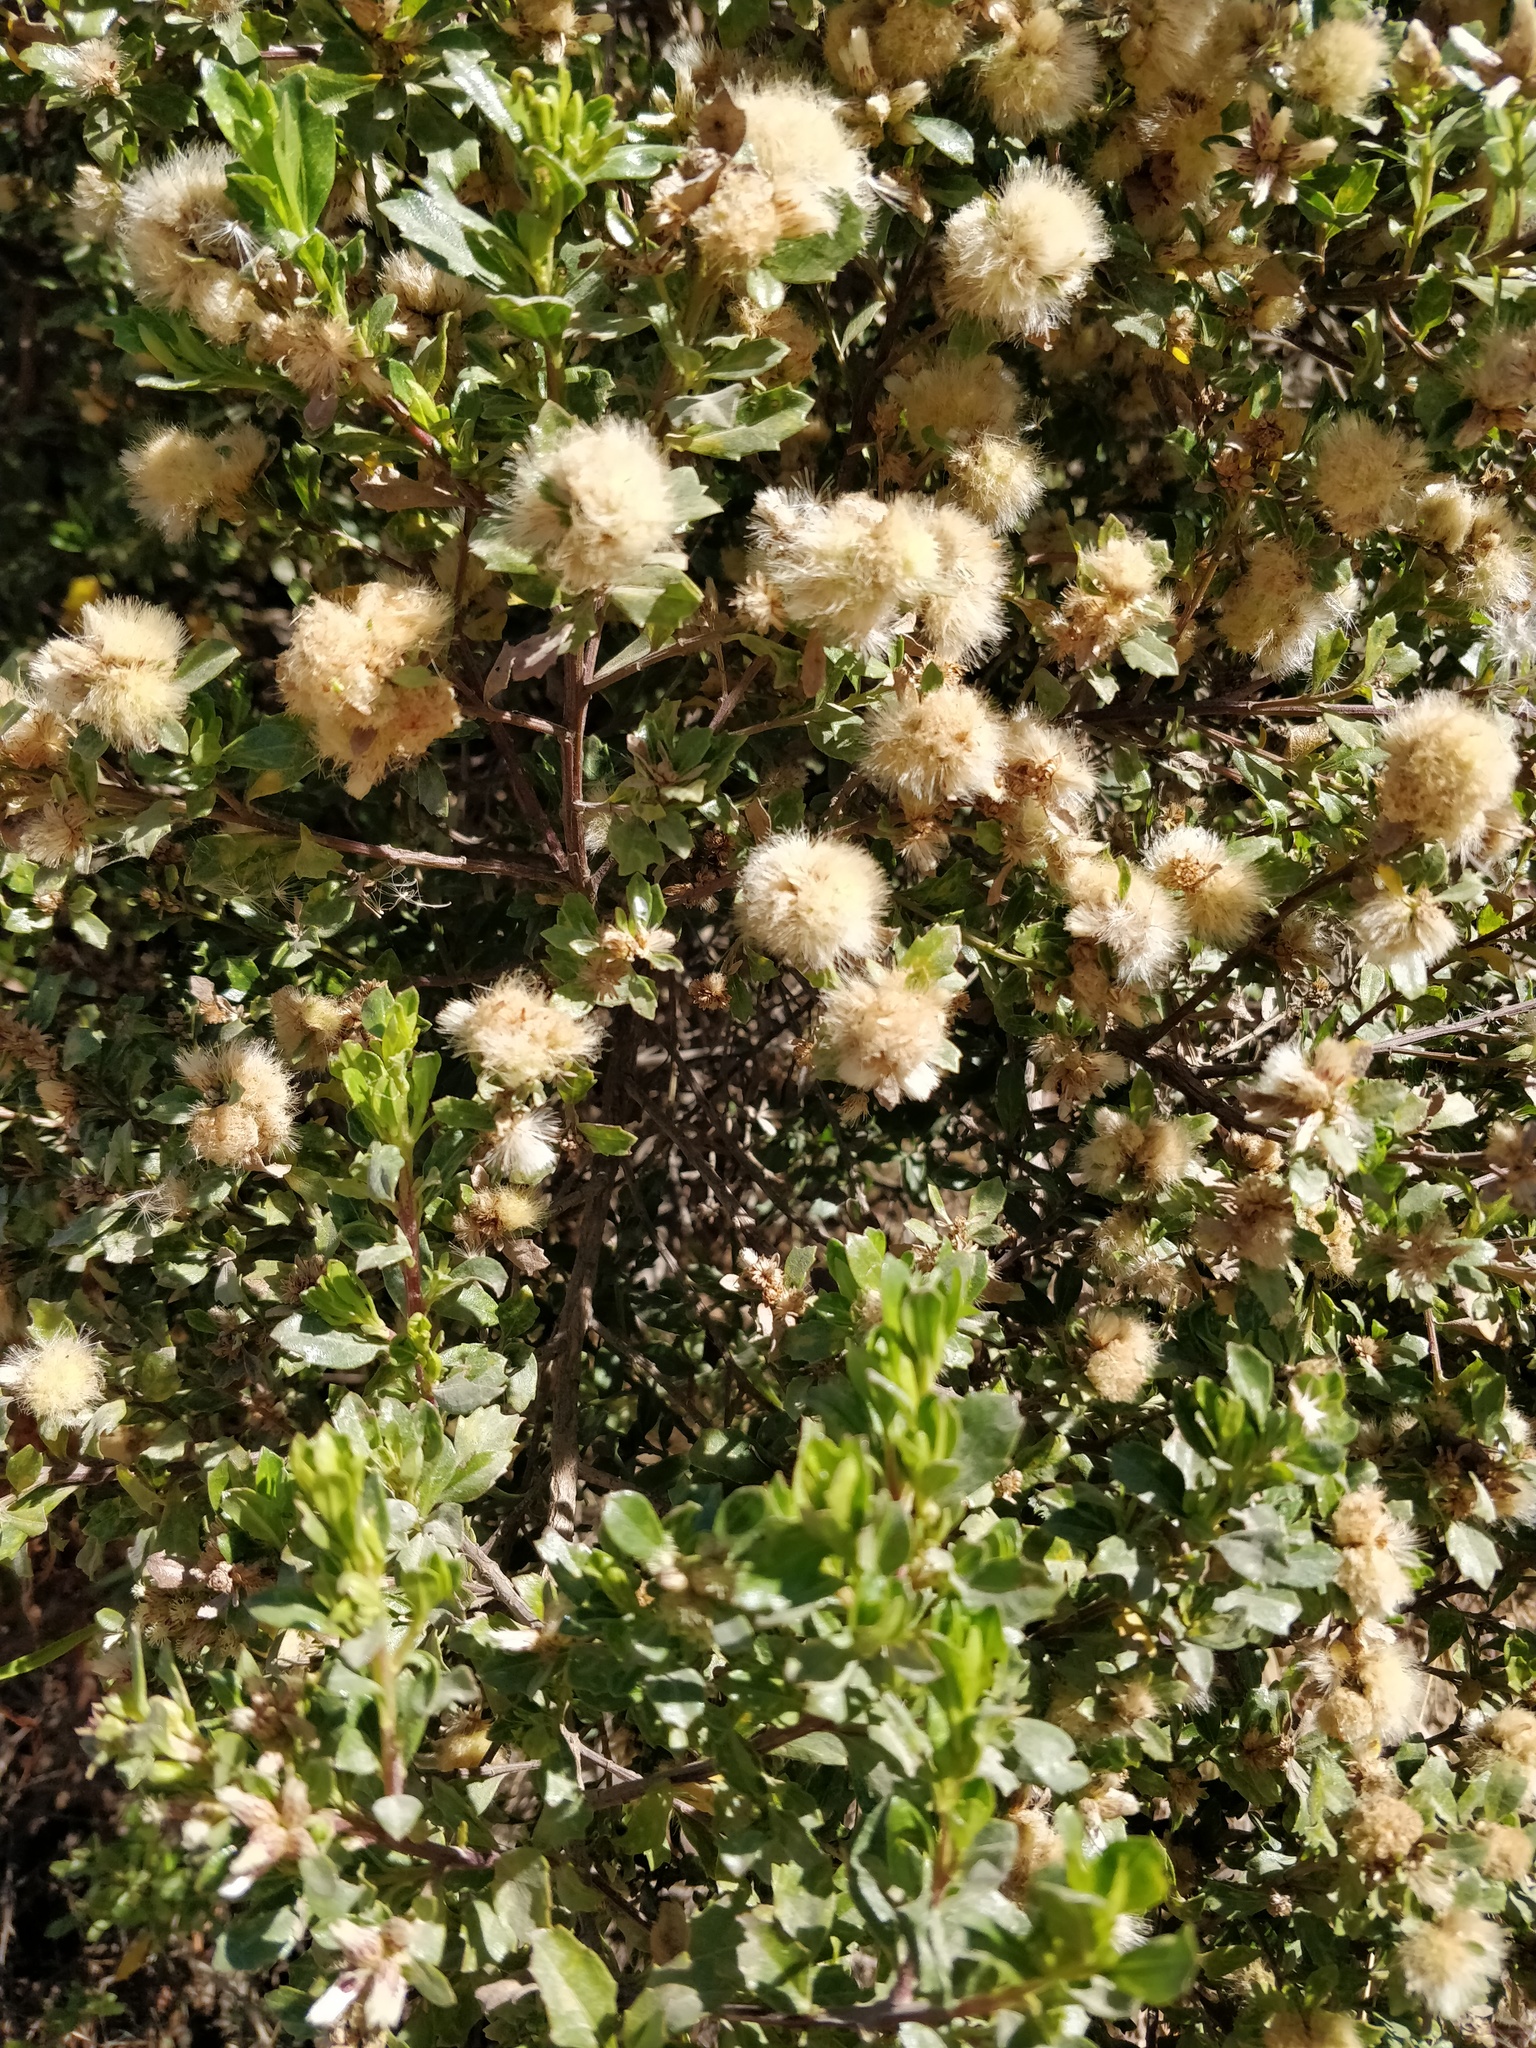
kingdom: Plantae
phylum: Tracheophyta
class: Magnoliopsida
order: Asterales
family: Asteraceae
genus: Baccharis
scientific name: Baccharis conferta
